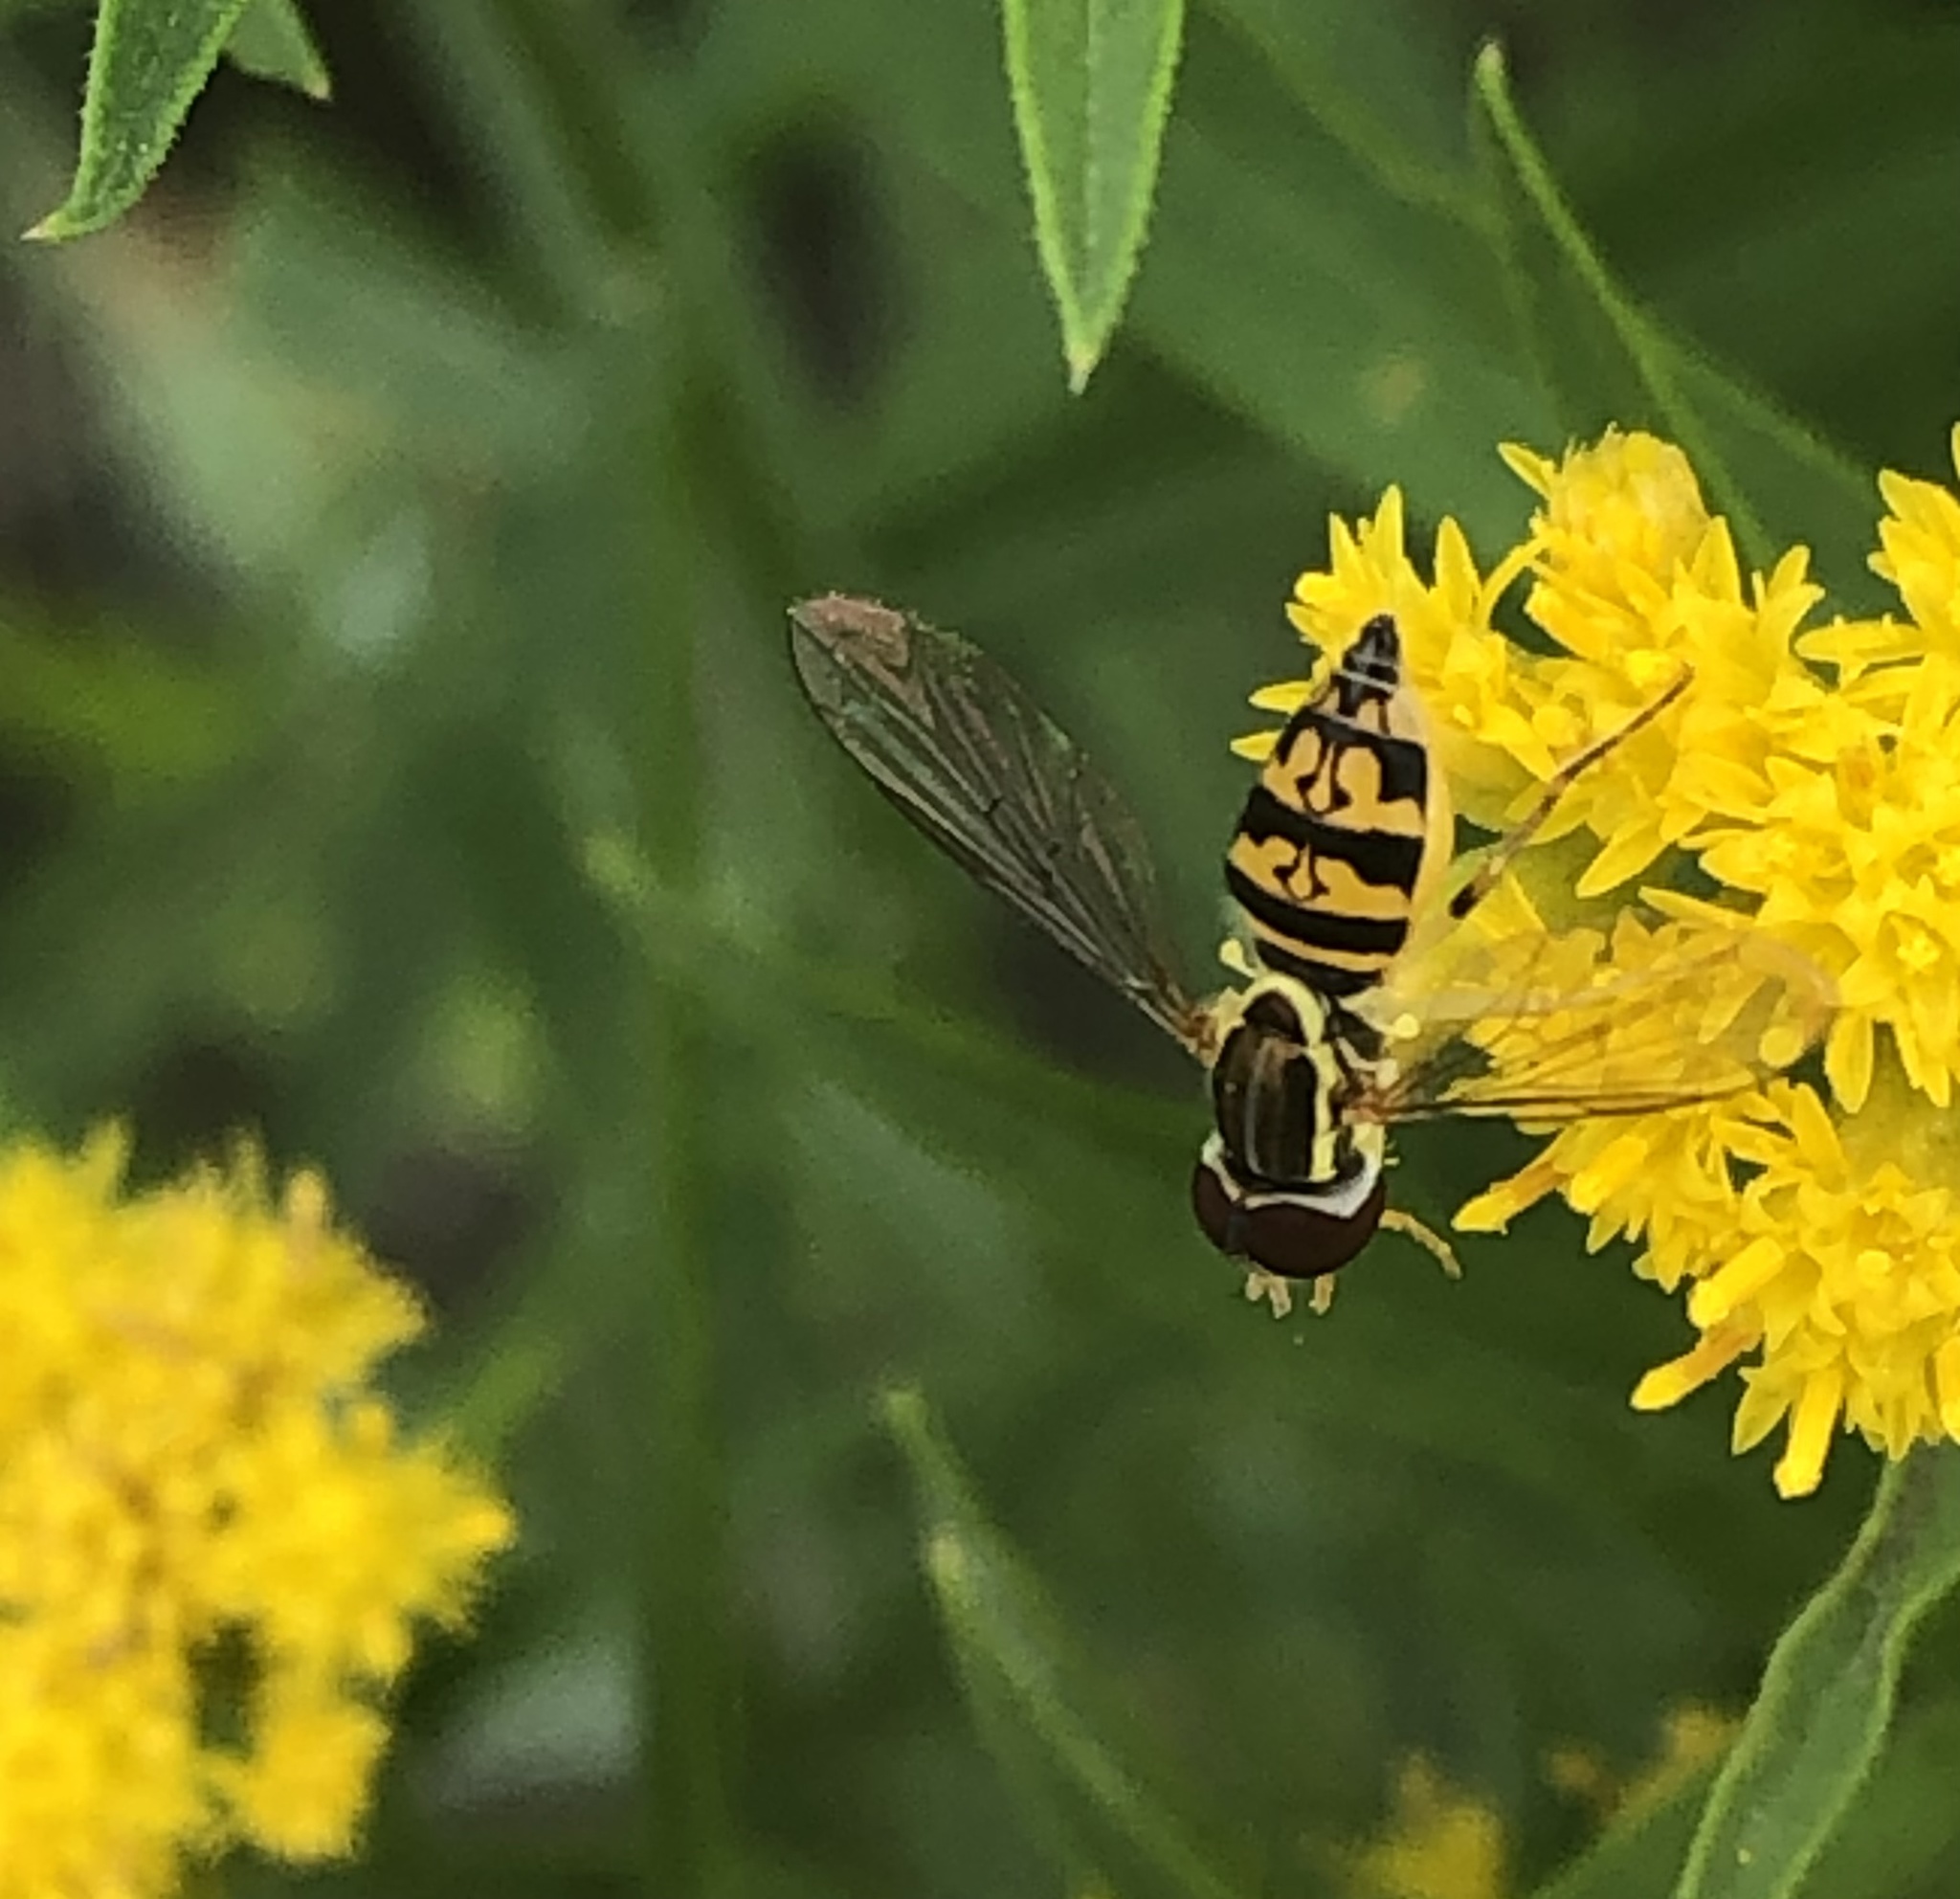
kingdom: Animalia
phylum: Arthropoda
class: Insecta
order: Diptera
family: Syrphidae
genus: Toxomerus
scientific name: Toxomerus geminatus
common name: Eastern calligrapher
